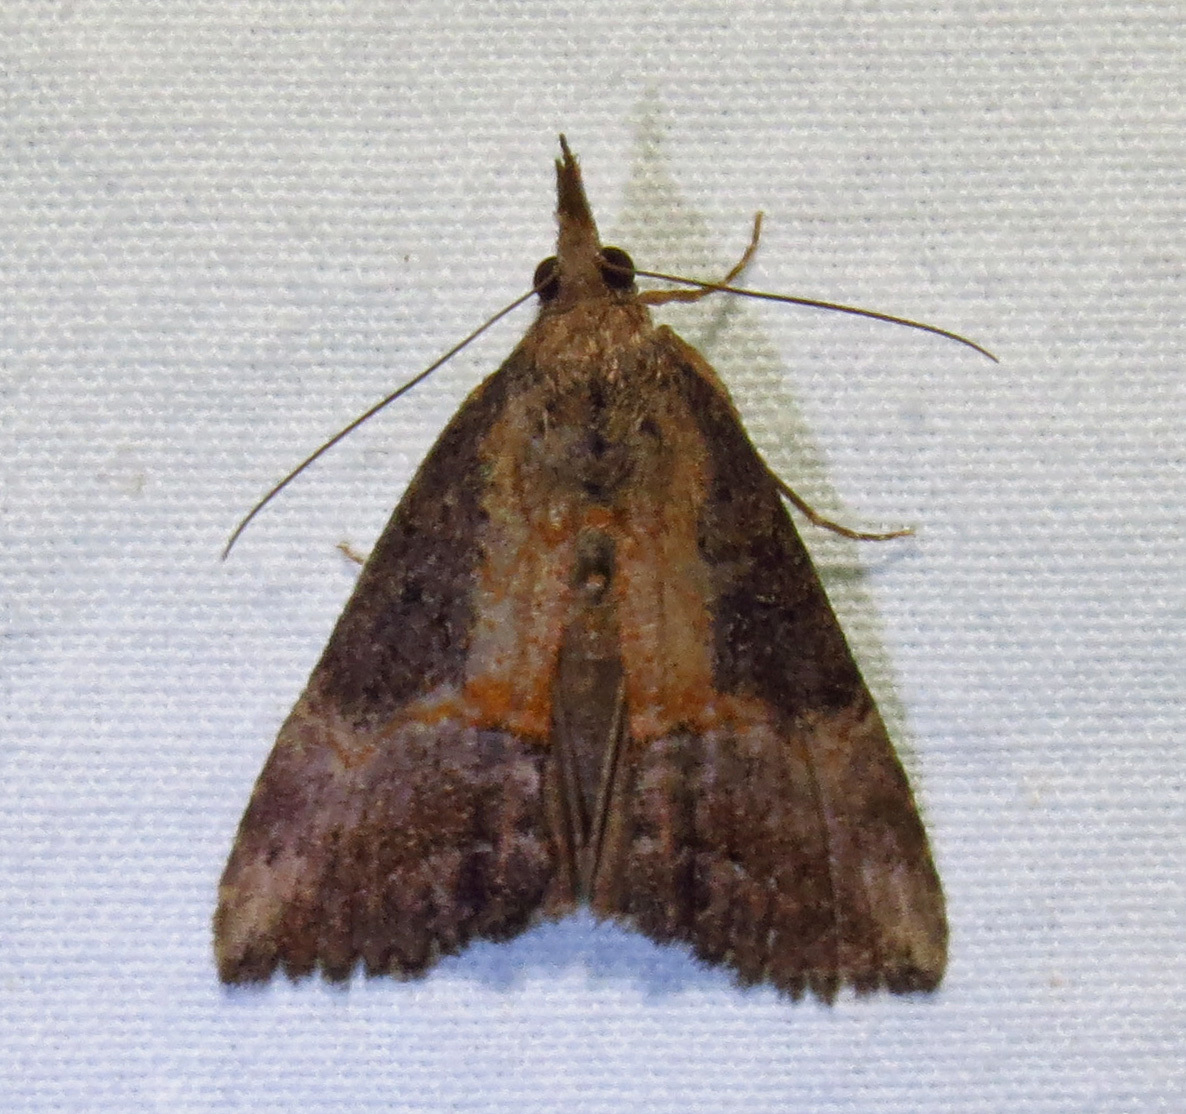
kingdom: Animalia
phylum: Arthropoda
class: Insecta
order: Lepidoptera
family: Erebidae
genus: Hypena
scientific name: Hypena scabra
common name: Green cloverworm
